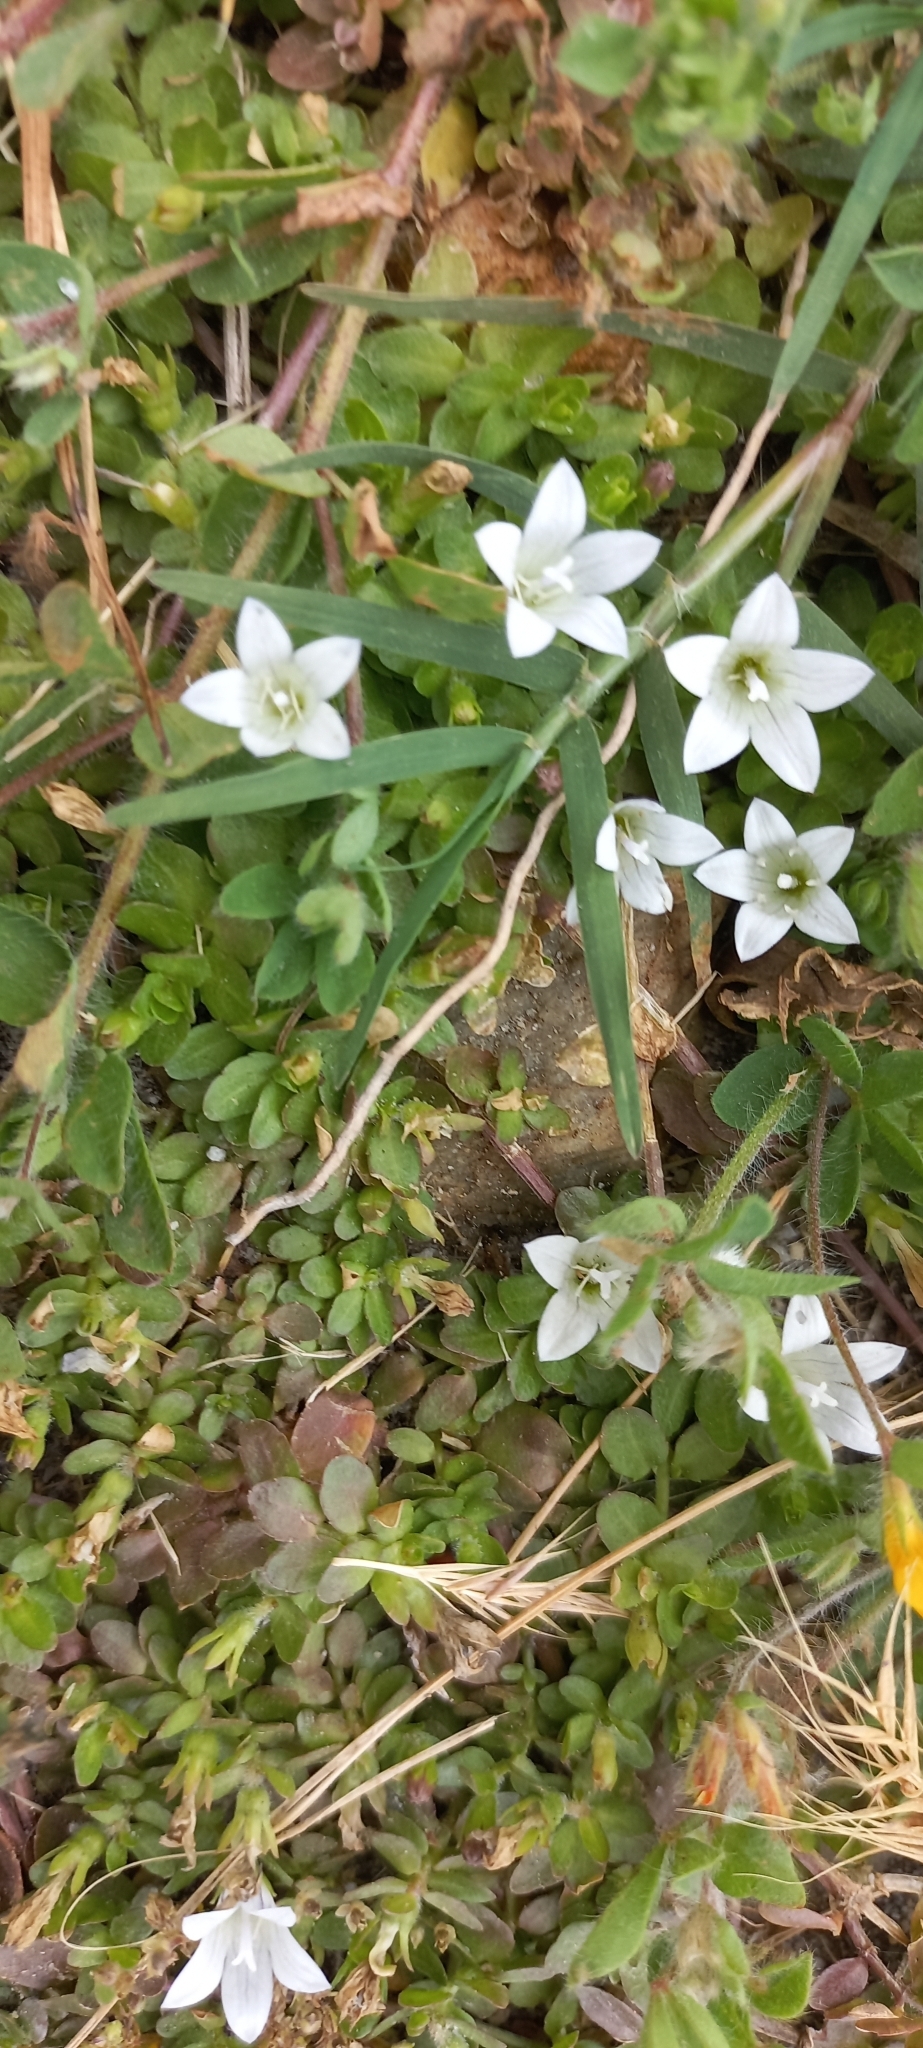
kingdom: Plantae
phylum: Tracheophyta
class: Magnoliopsida
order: Asterales
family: Campanulaceae
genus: Wahlenbergia
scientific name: Wahlenbergia procumbens
